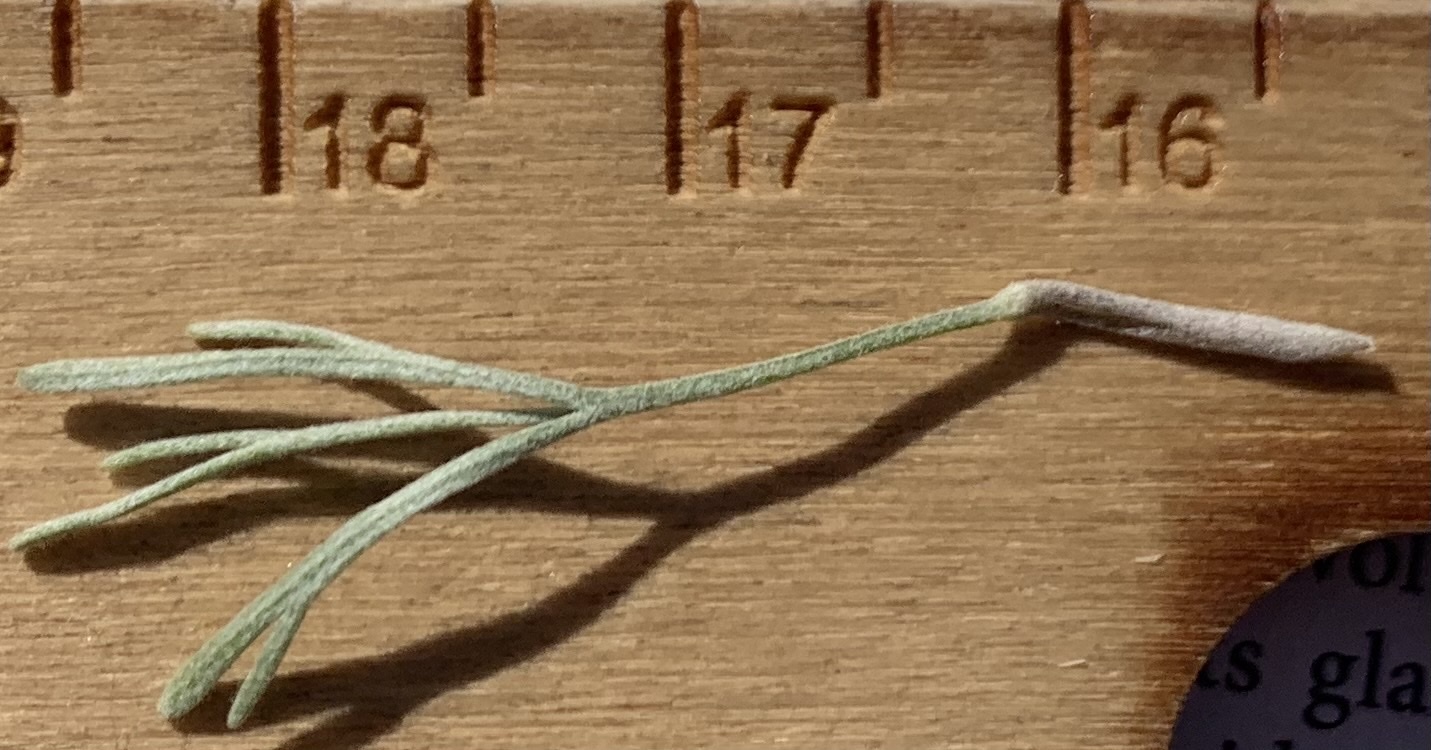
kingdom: Plantae
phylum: Tracheophyta
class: Magnoliopsida
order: Asterales
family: Asteraceae
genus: Artemisia
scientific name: Artemisia tripartita
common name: Three-tip sagebrush
